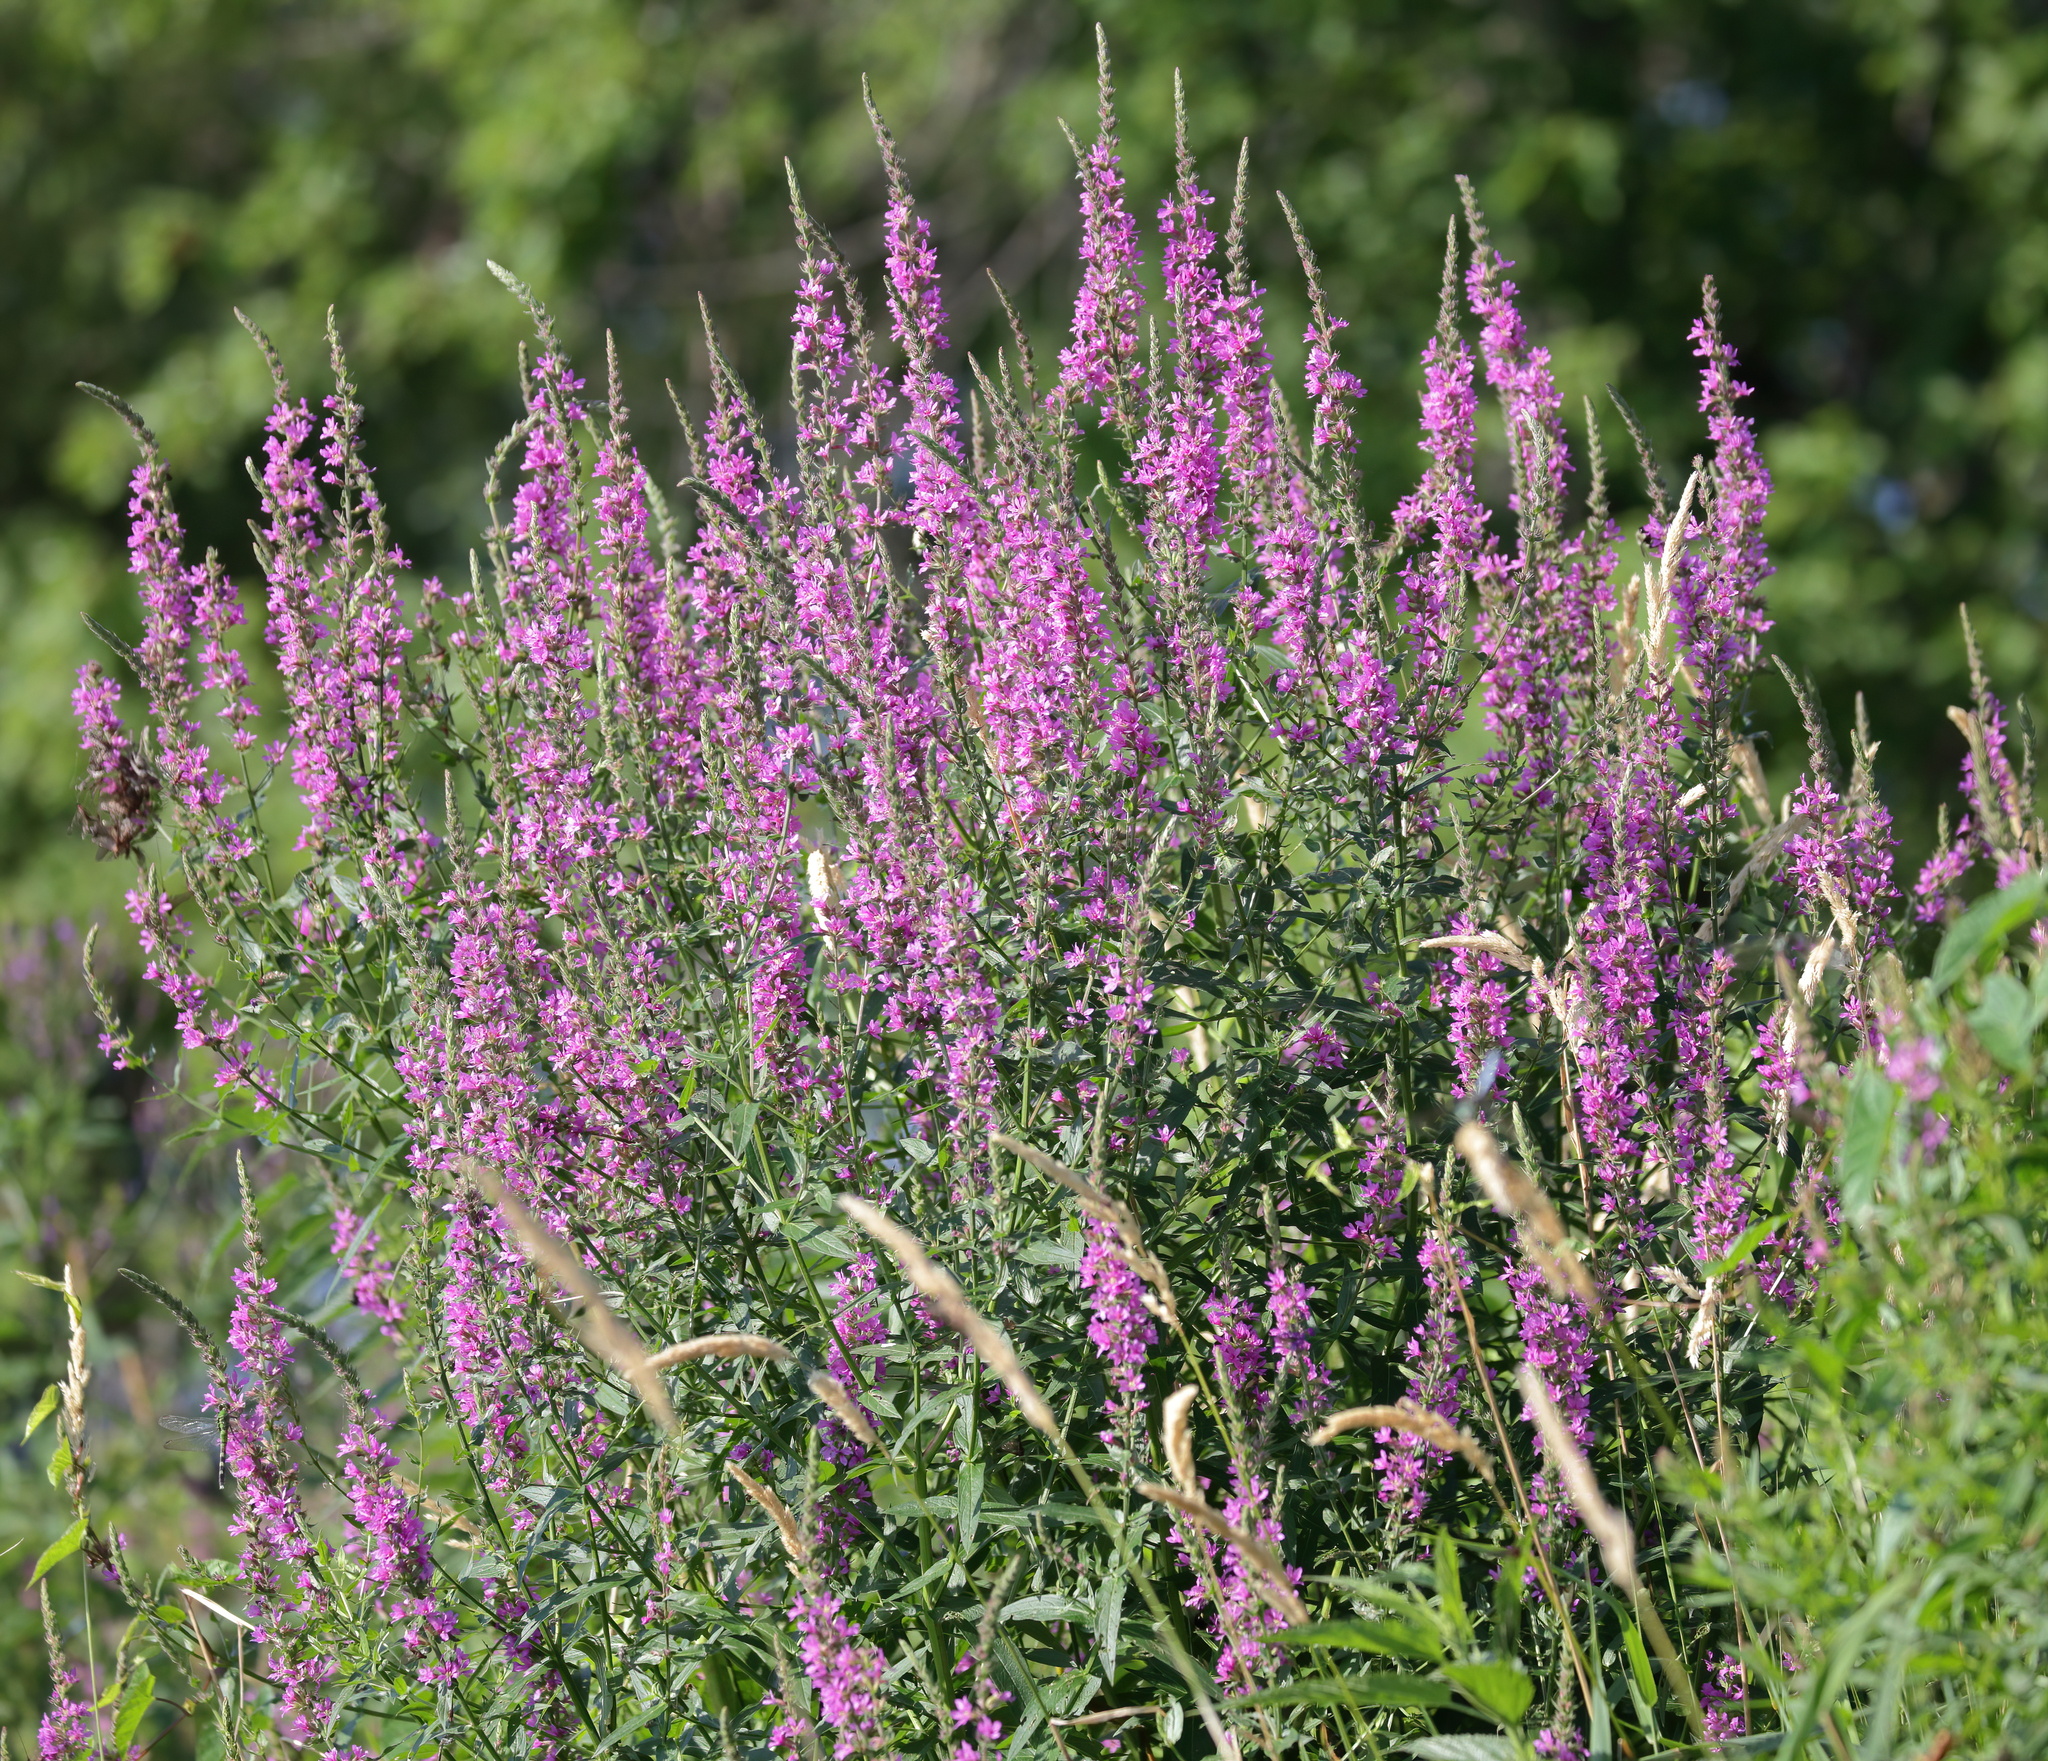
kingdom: Plantae
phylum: Tracheophyta
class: Magnoliopsida
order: Myrtales
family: Lythraceae
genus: Lythrum
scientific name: Lythrum salicaria
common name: Purple loosestrife
